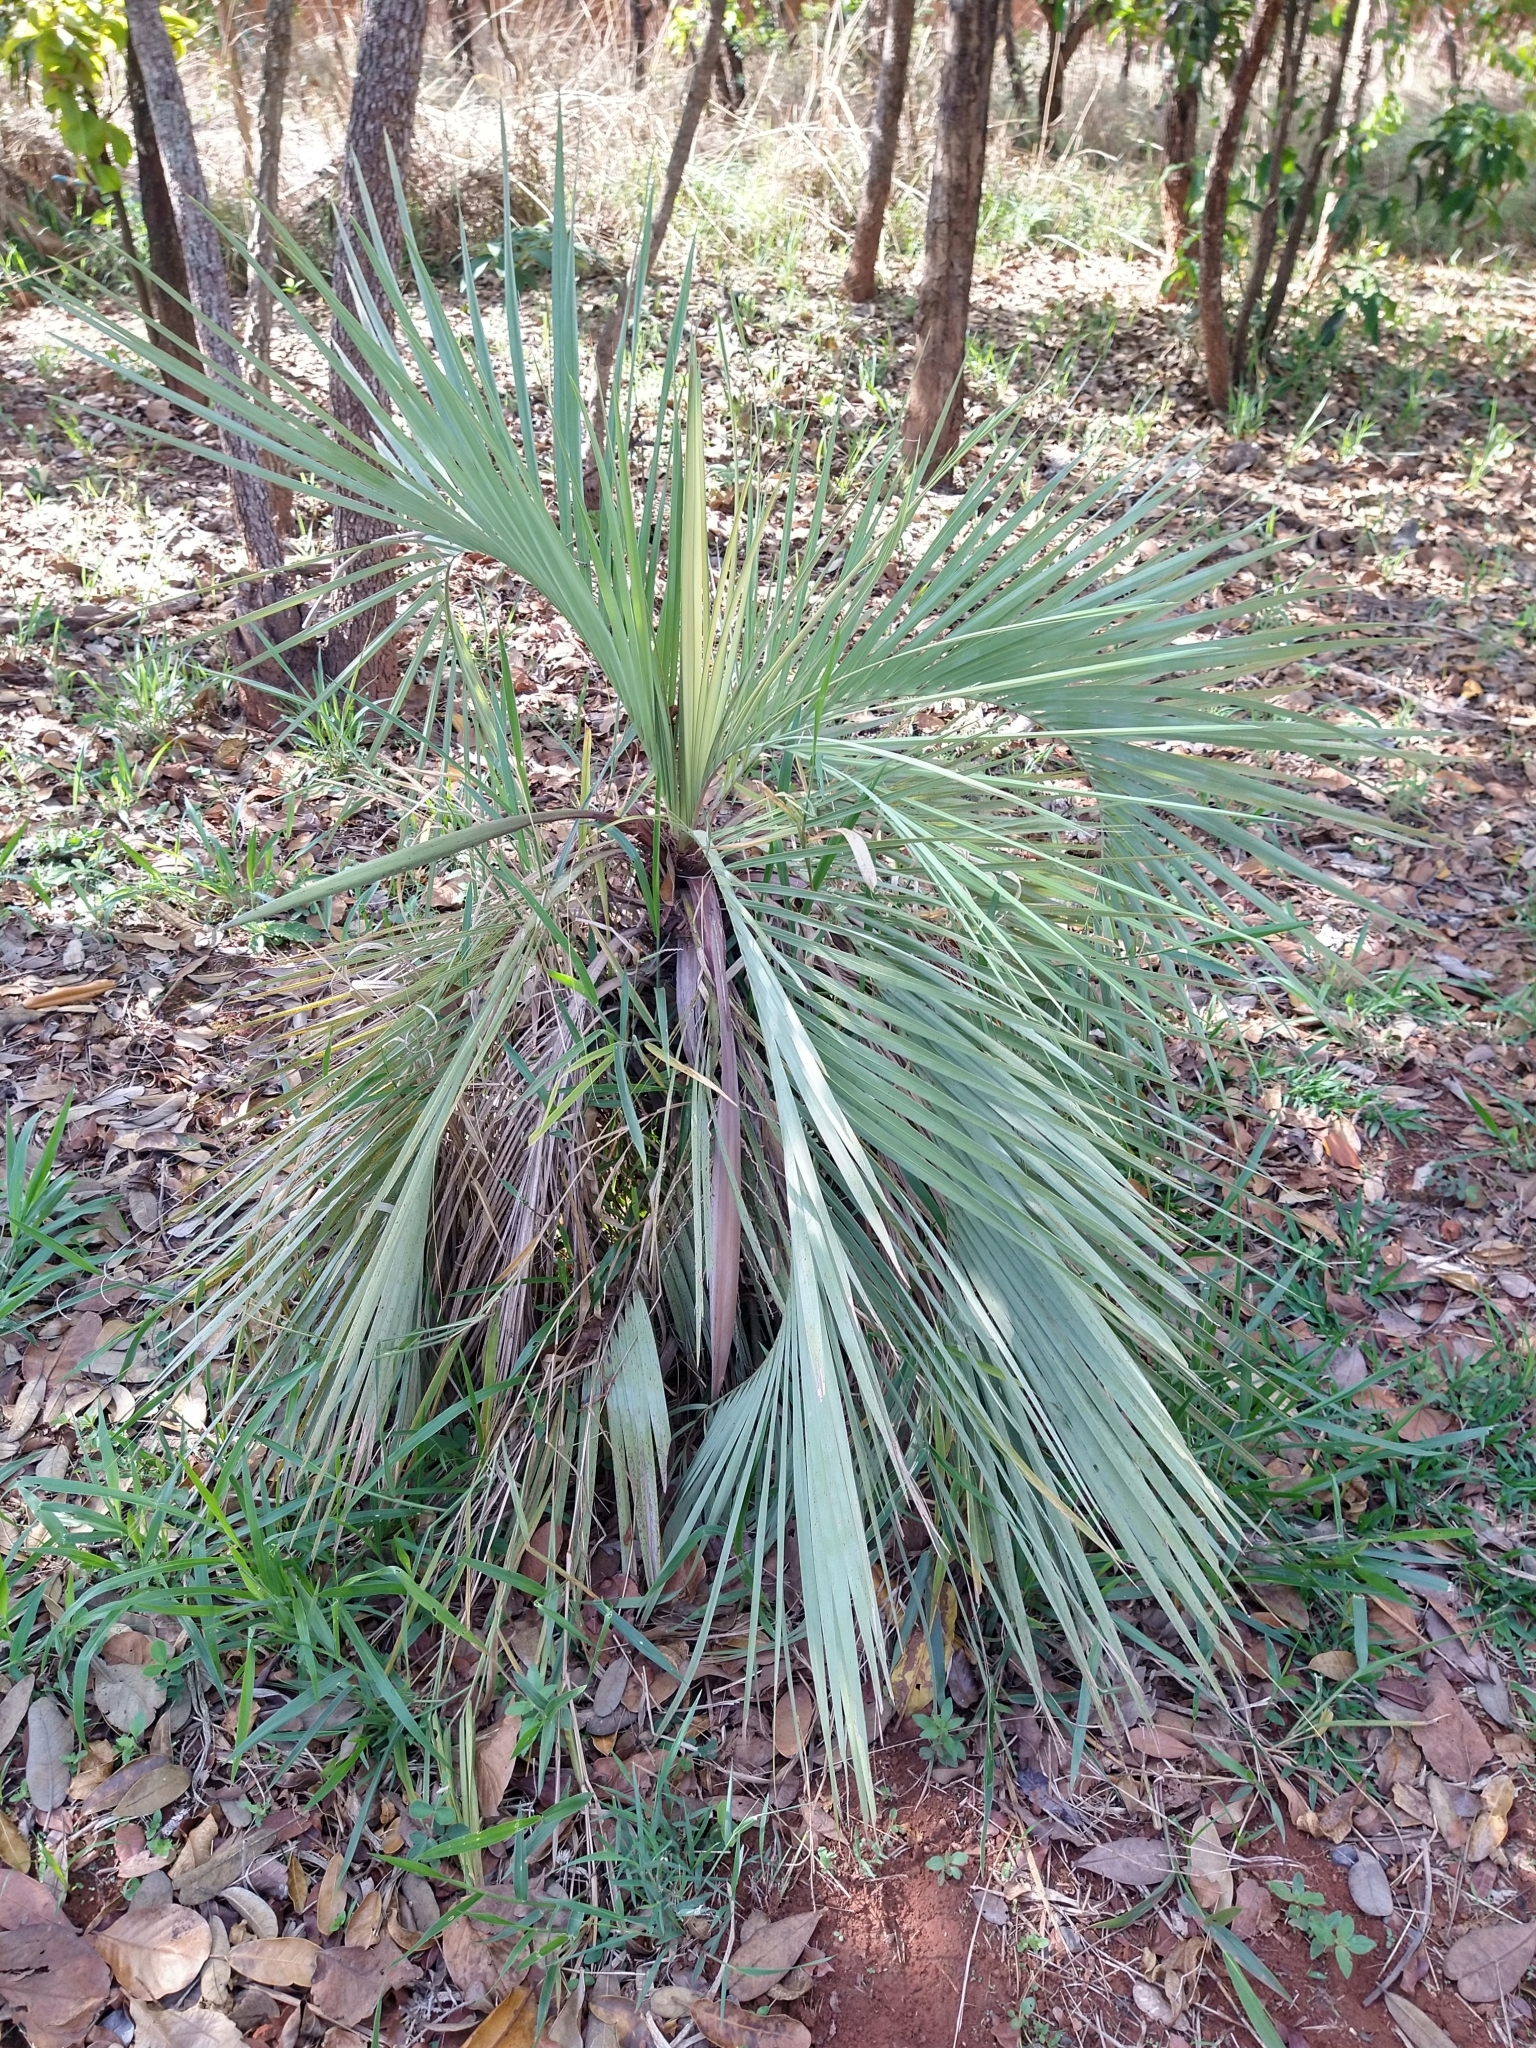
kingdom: Plantae
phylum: Tracheophyta
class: Liliopsida
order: Arecales
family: Arecaceae
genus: Butia
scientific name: Butia archeri
